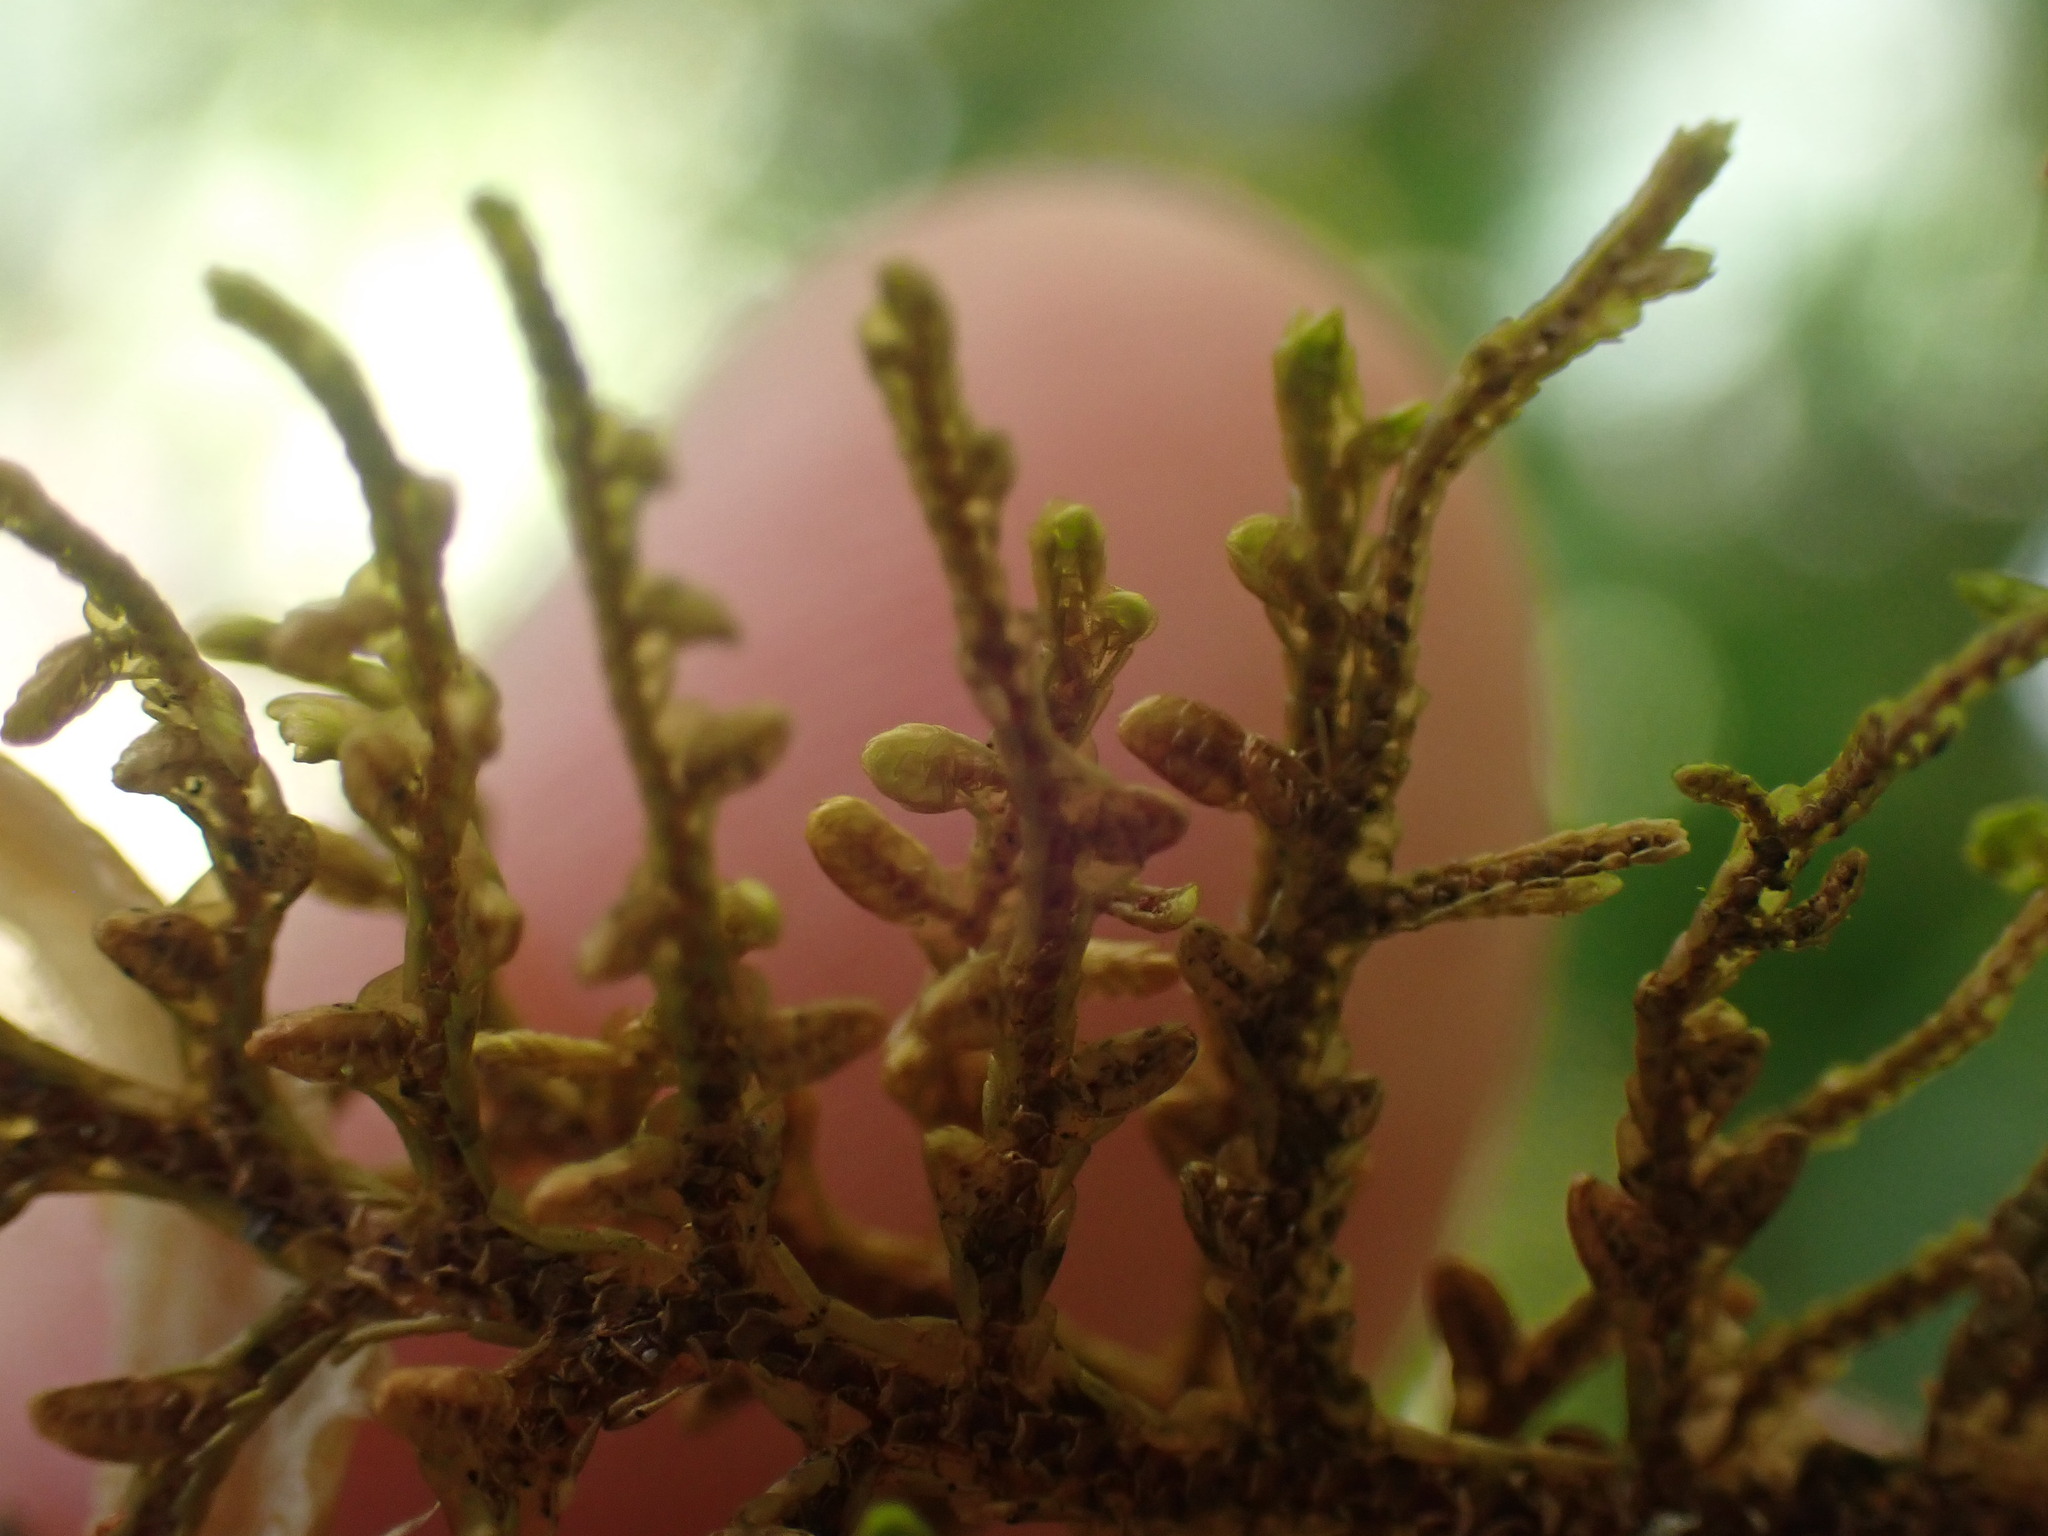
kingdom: Plantae
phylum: Marchantiophyta
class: Jungermanniopsida
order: Porellales
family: Porellaceae
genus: Porella
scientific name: Porella navicularis
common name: Tree ruffle liverwort
